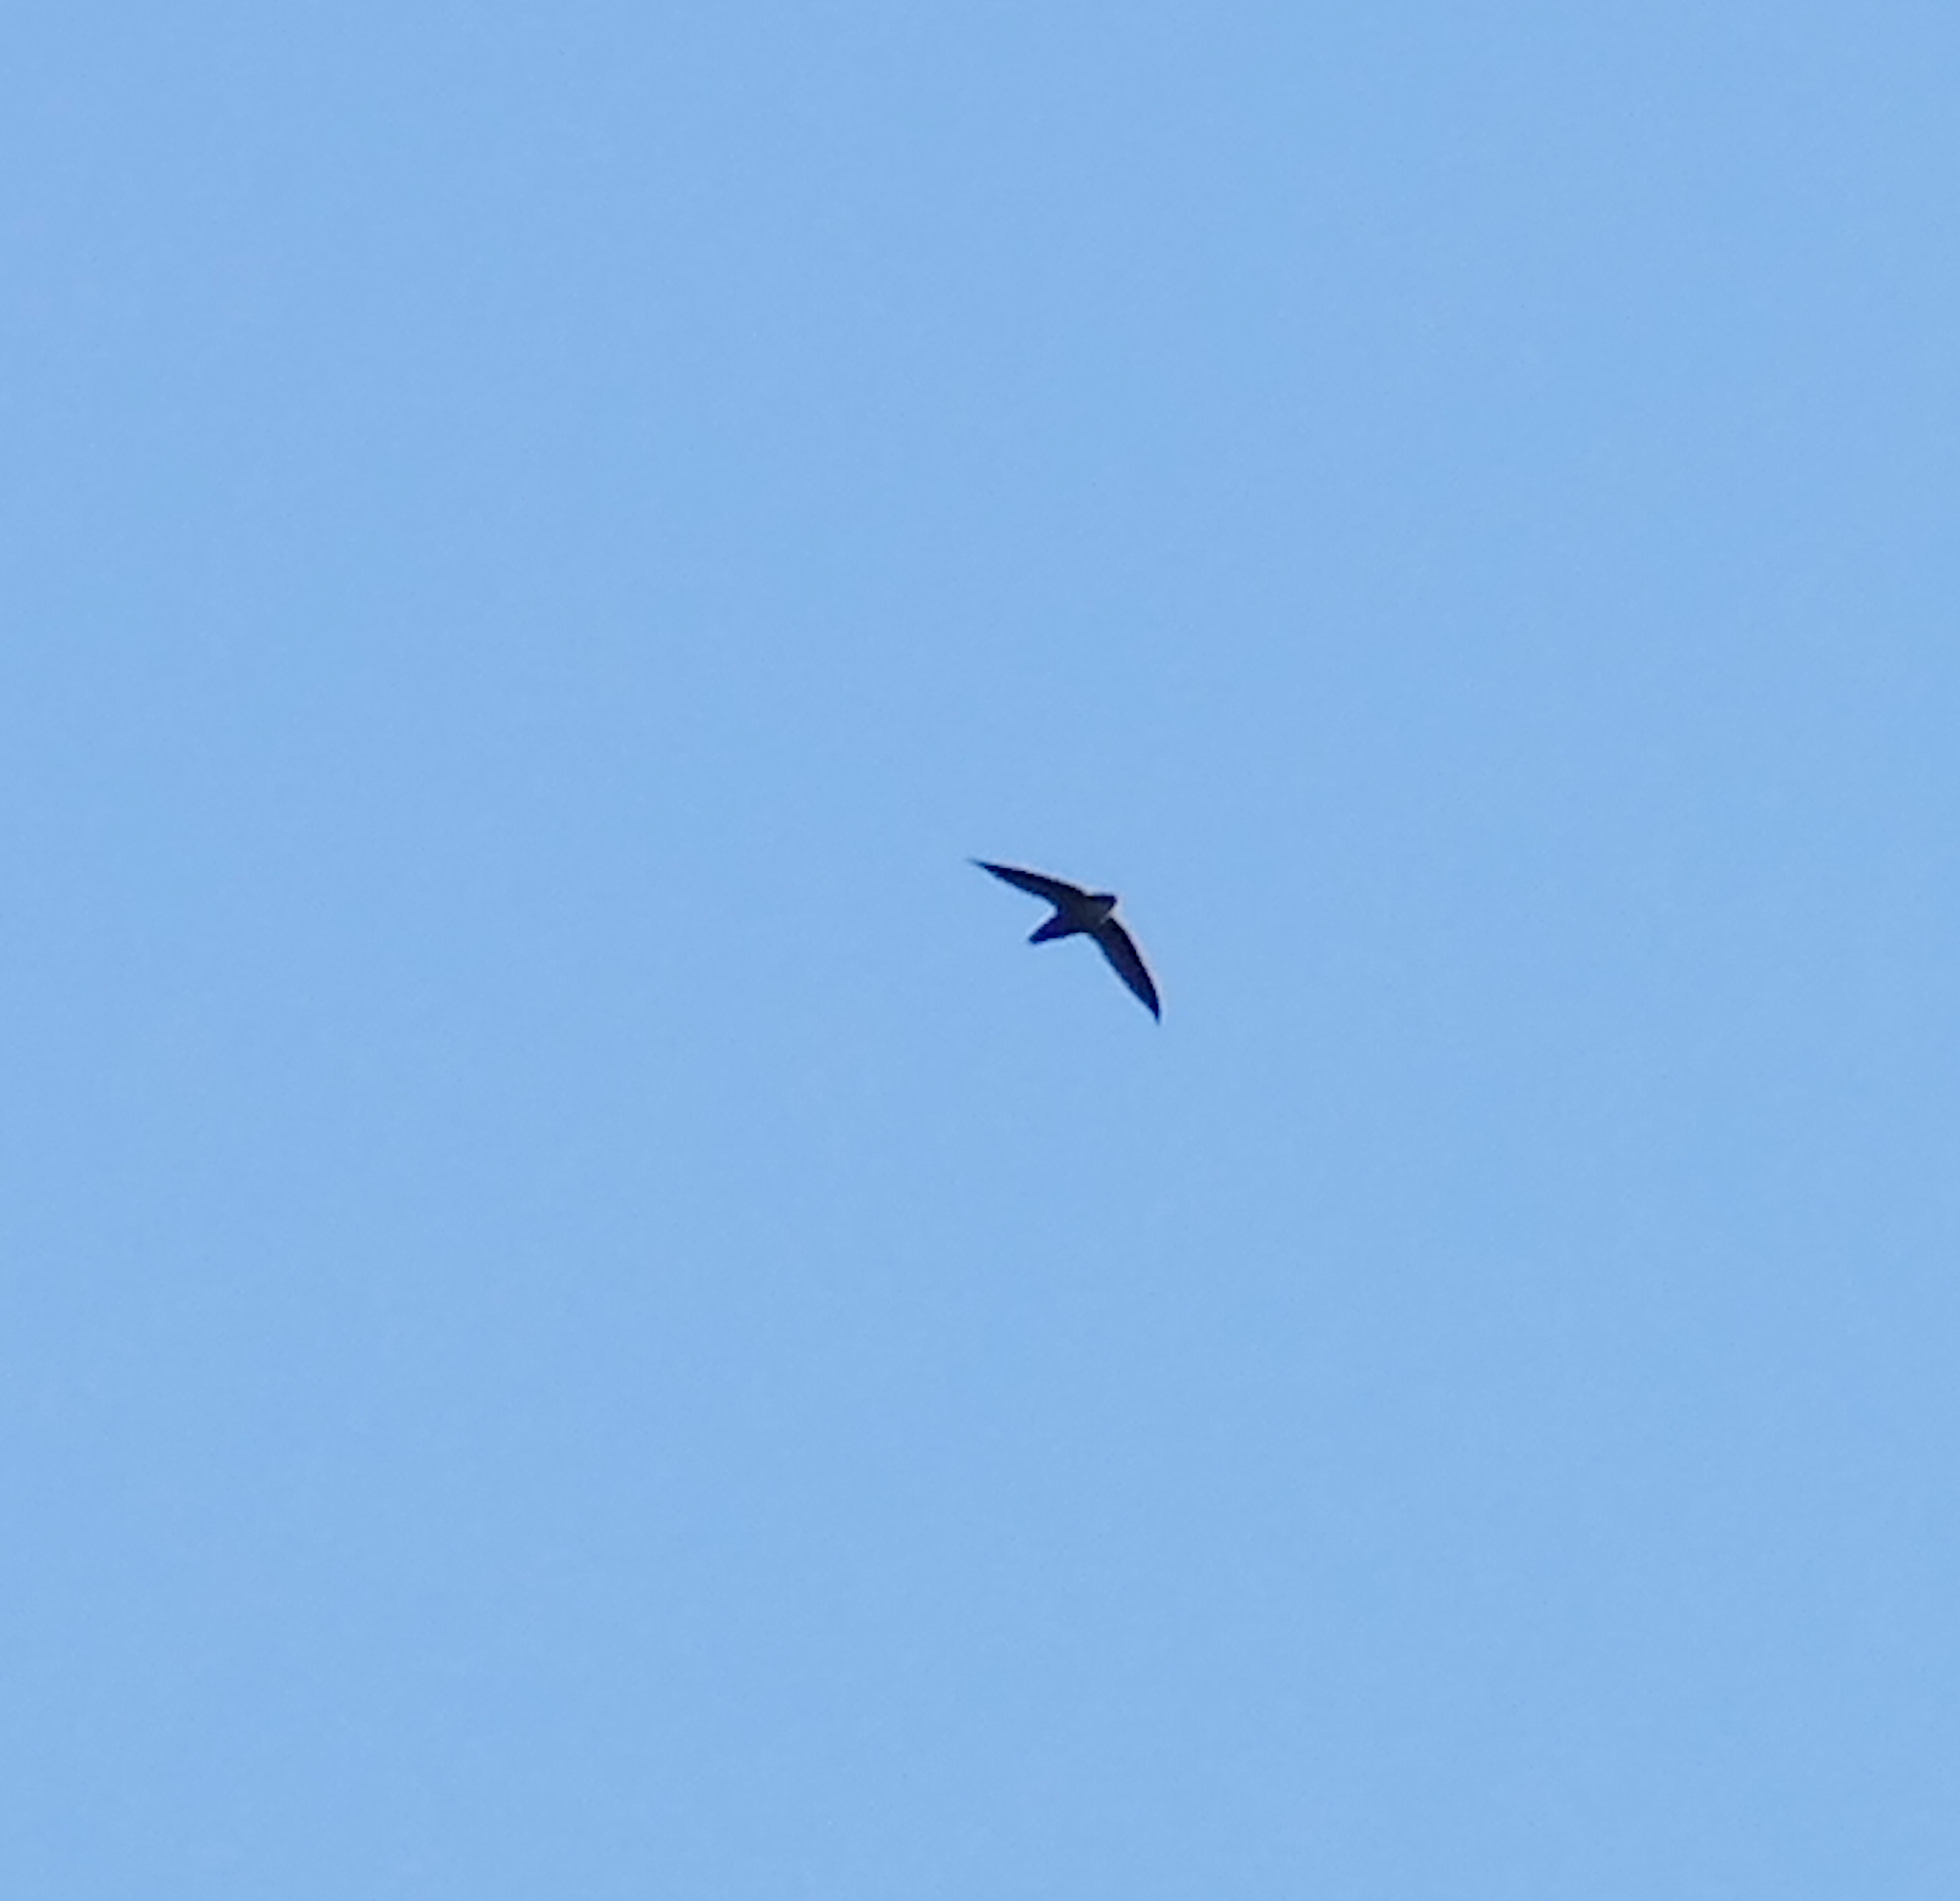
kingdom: Animalia
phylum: Chordata
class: Aves
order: Apodiformes
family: Apodidae
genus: Chaetura
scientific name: Chaetura pelagica
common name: Chimney swift
